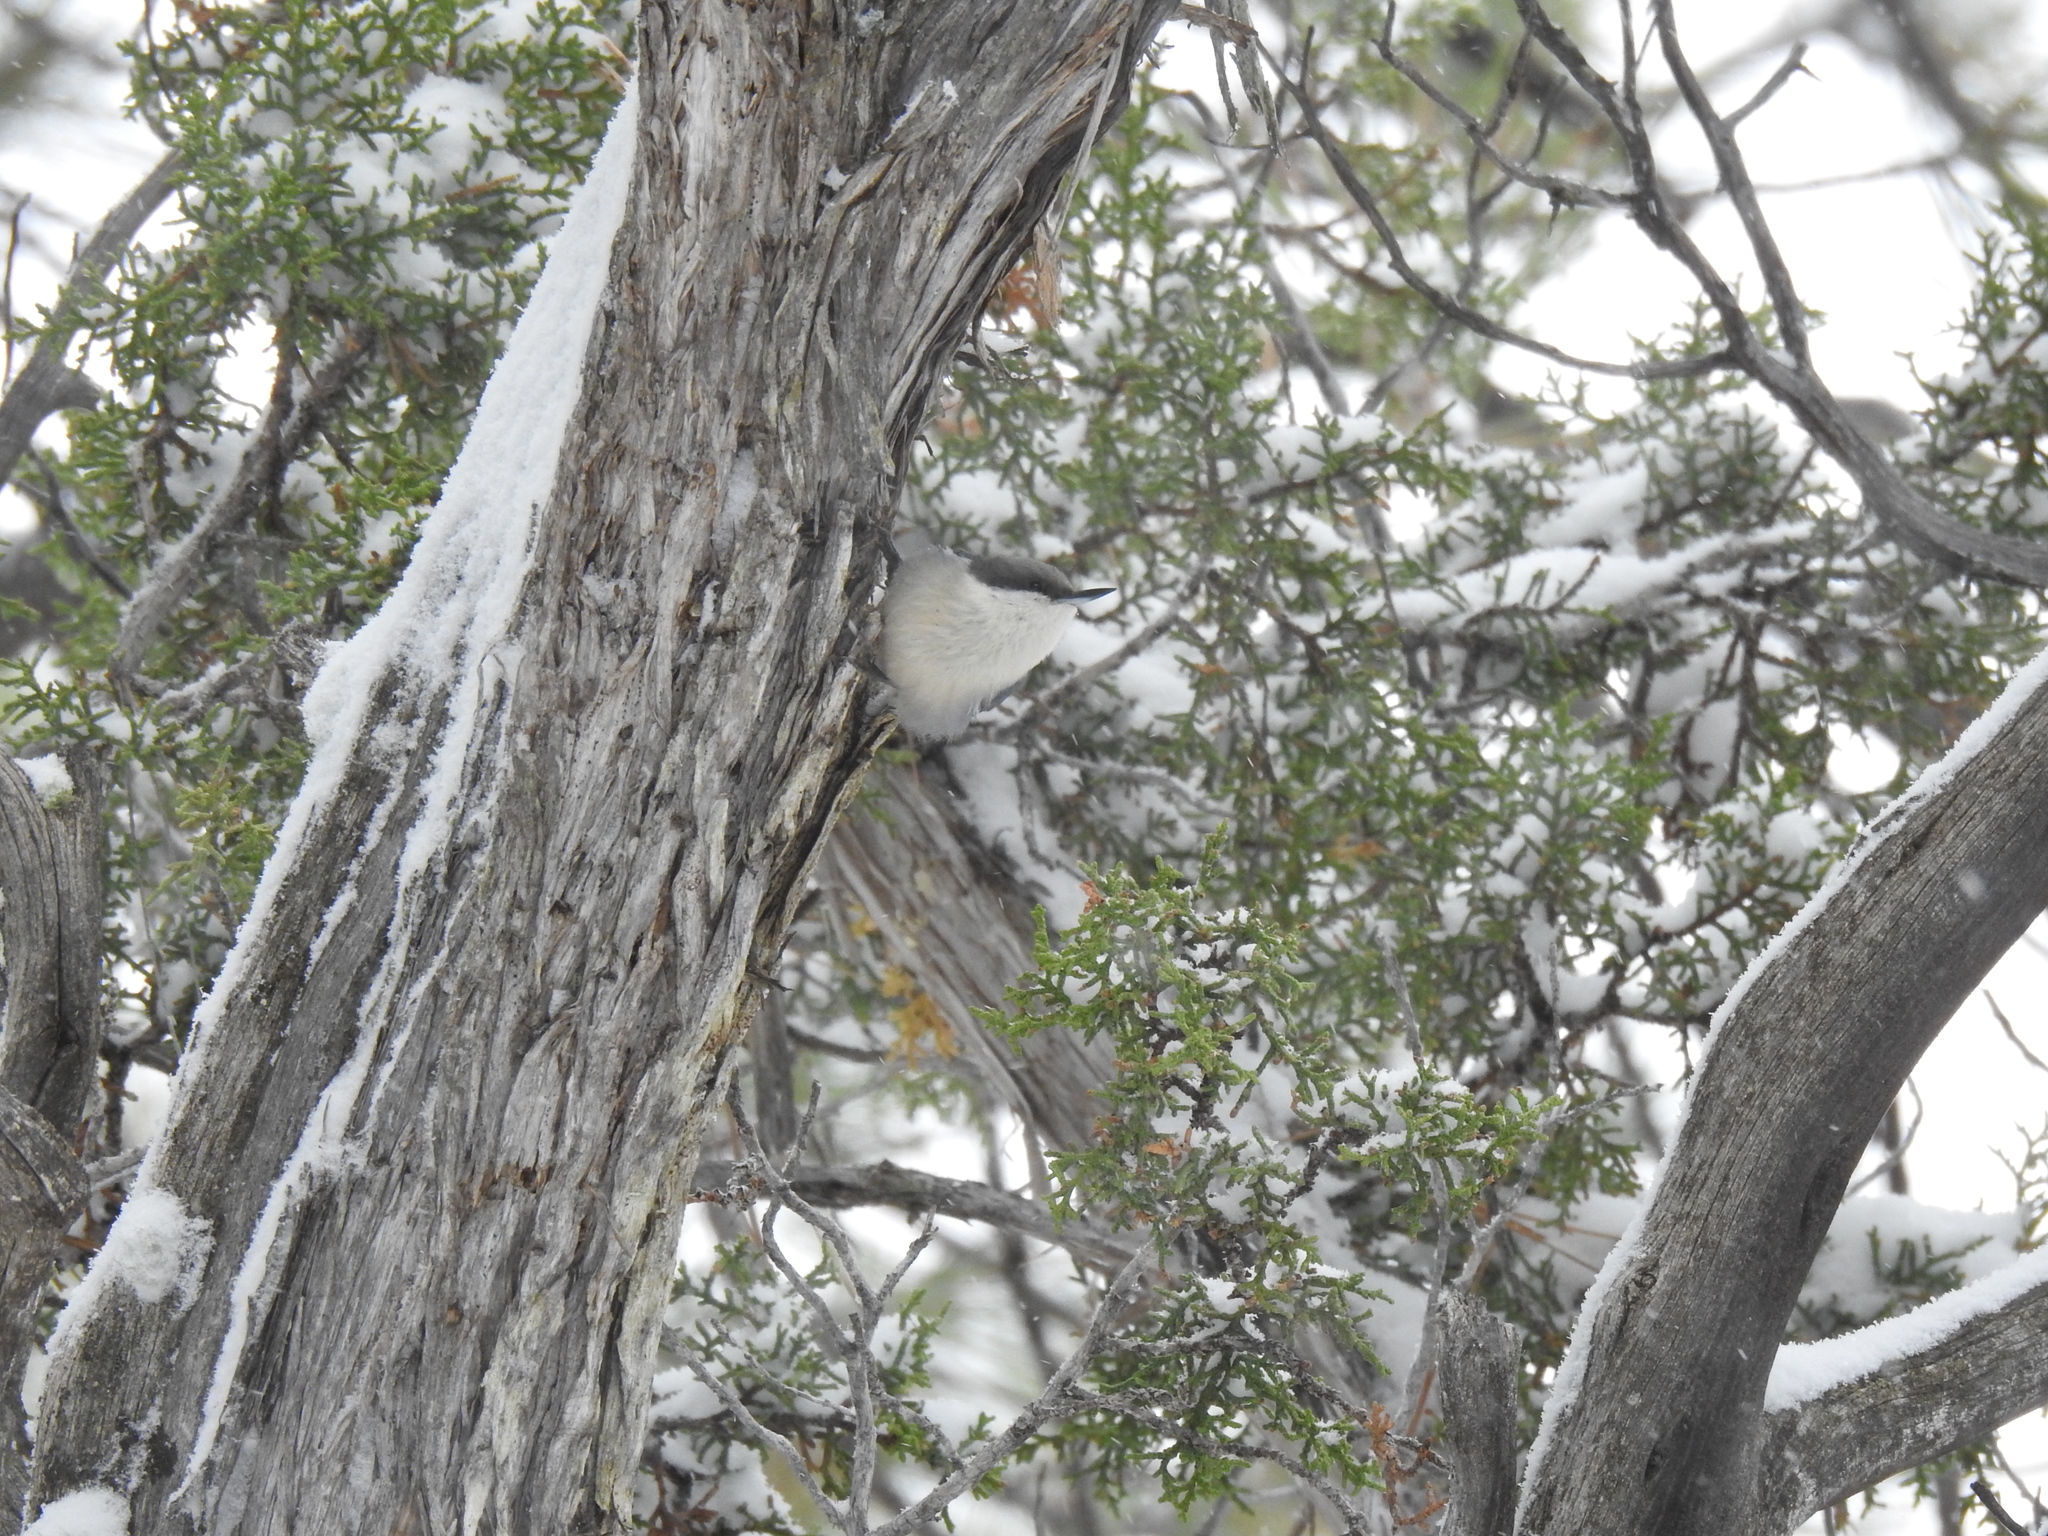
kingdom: Animalia
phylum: Chordata
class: Aves
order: Passeriformes
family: Sittidae
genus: Sitta
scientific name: Sitta pygmaea
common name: Pygmy nuthatch
